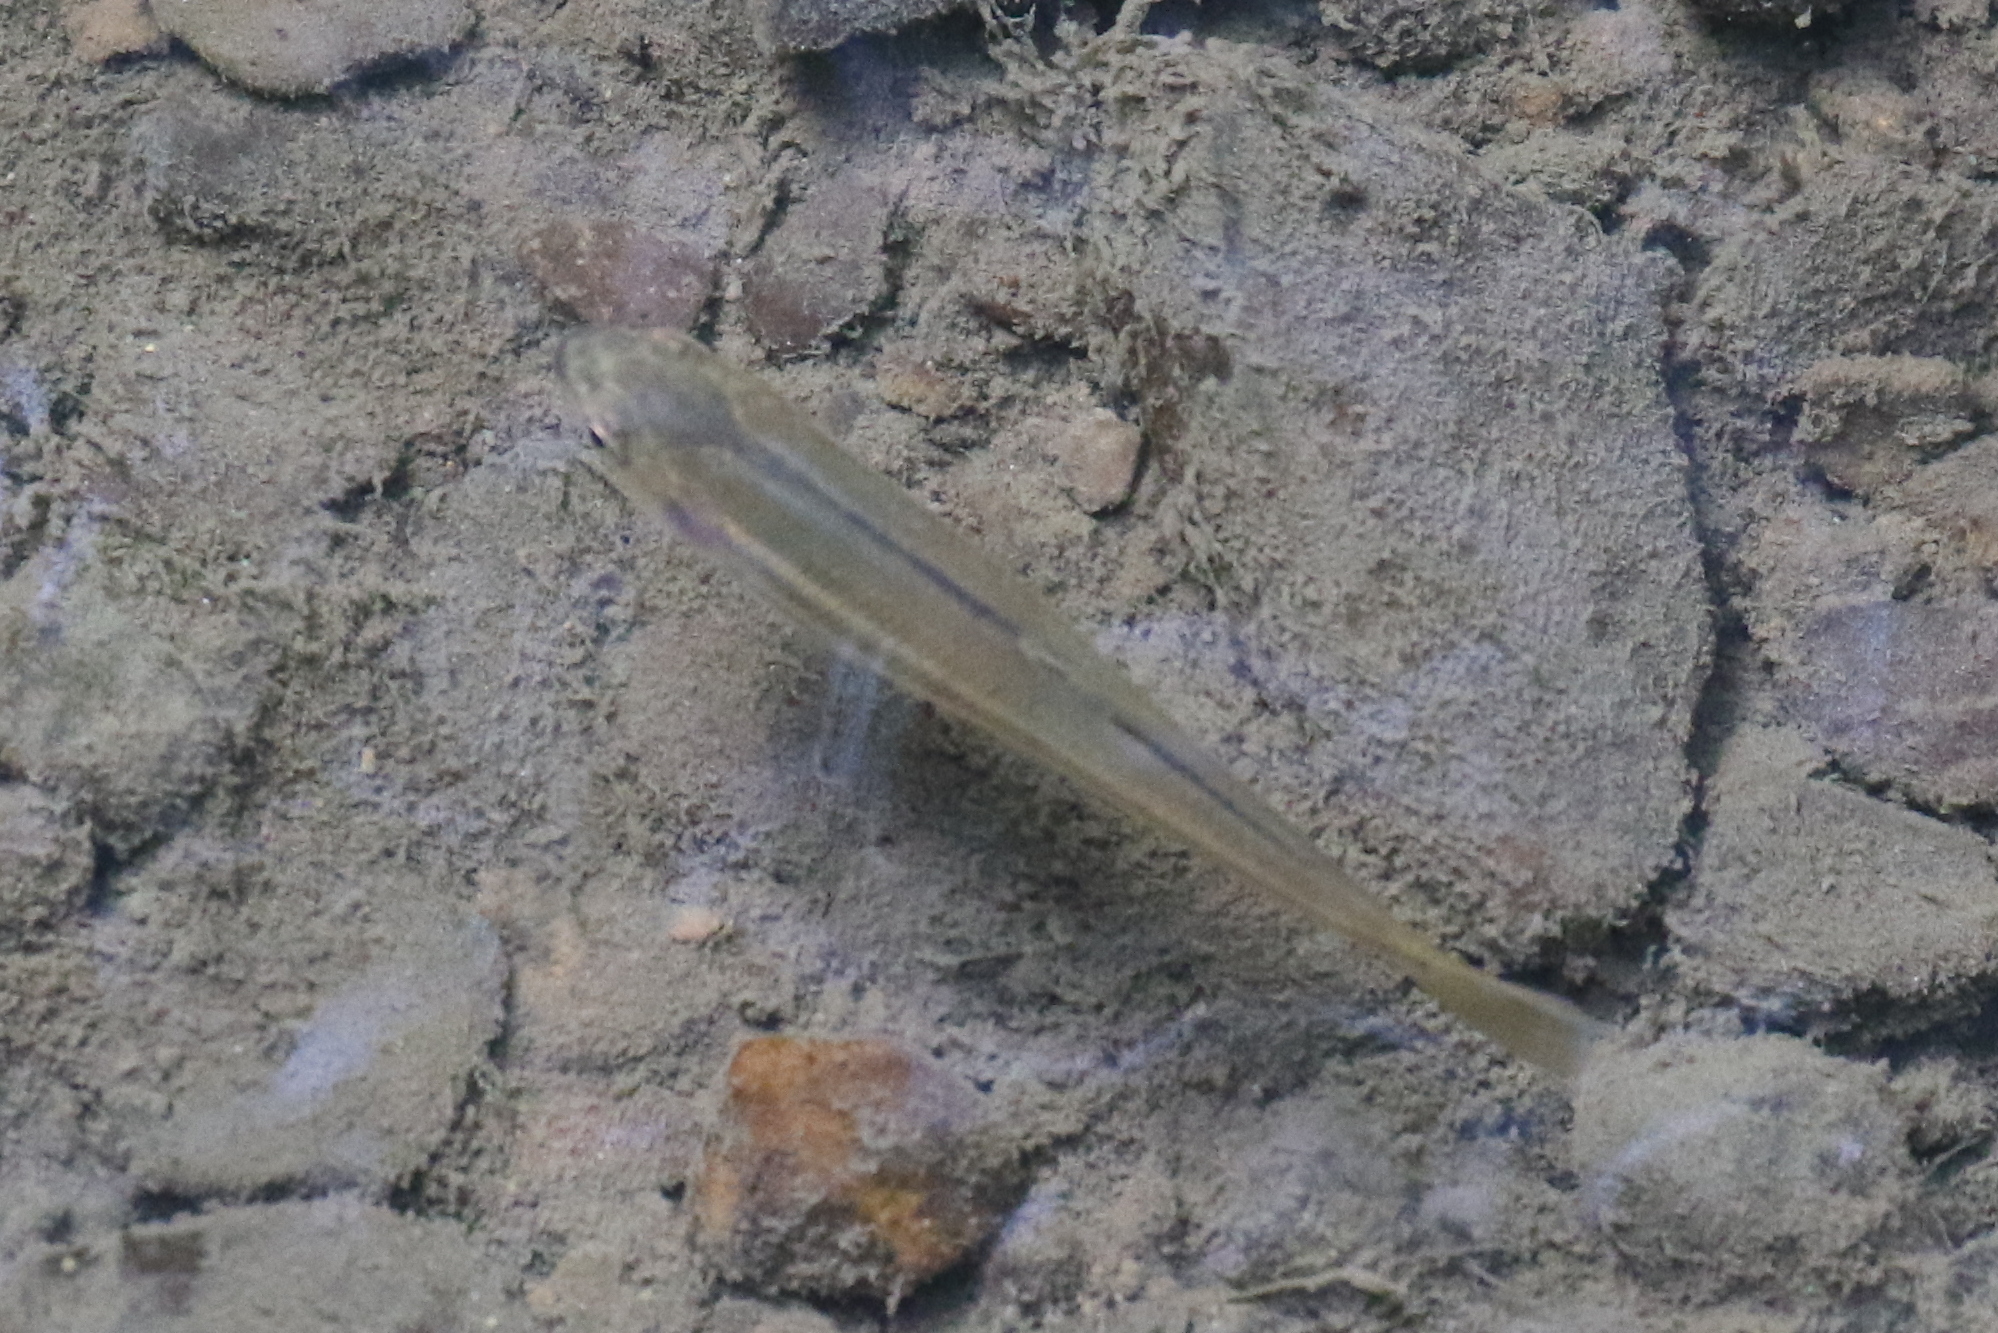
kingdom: Animalia
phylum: Chordata
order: Cypriniformes
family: Cyprinidae
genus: Semotilus
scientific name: Semotilus atromaculatus
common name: Creek chub
